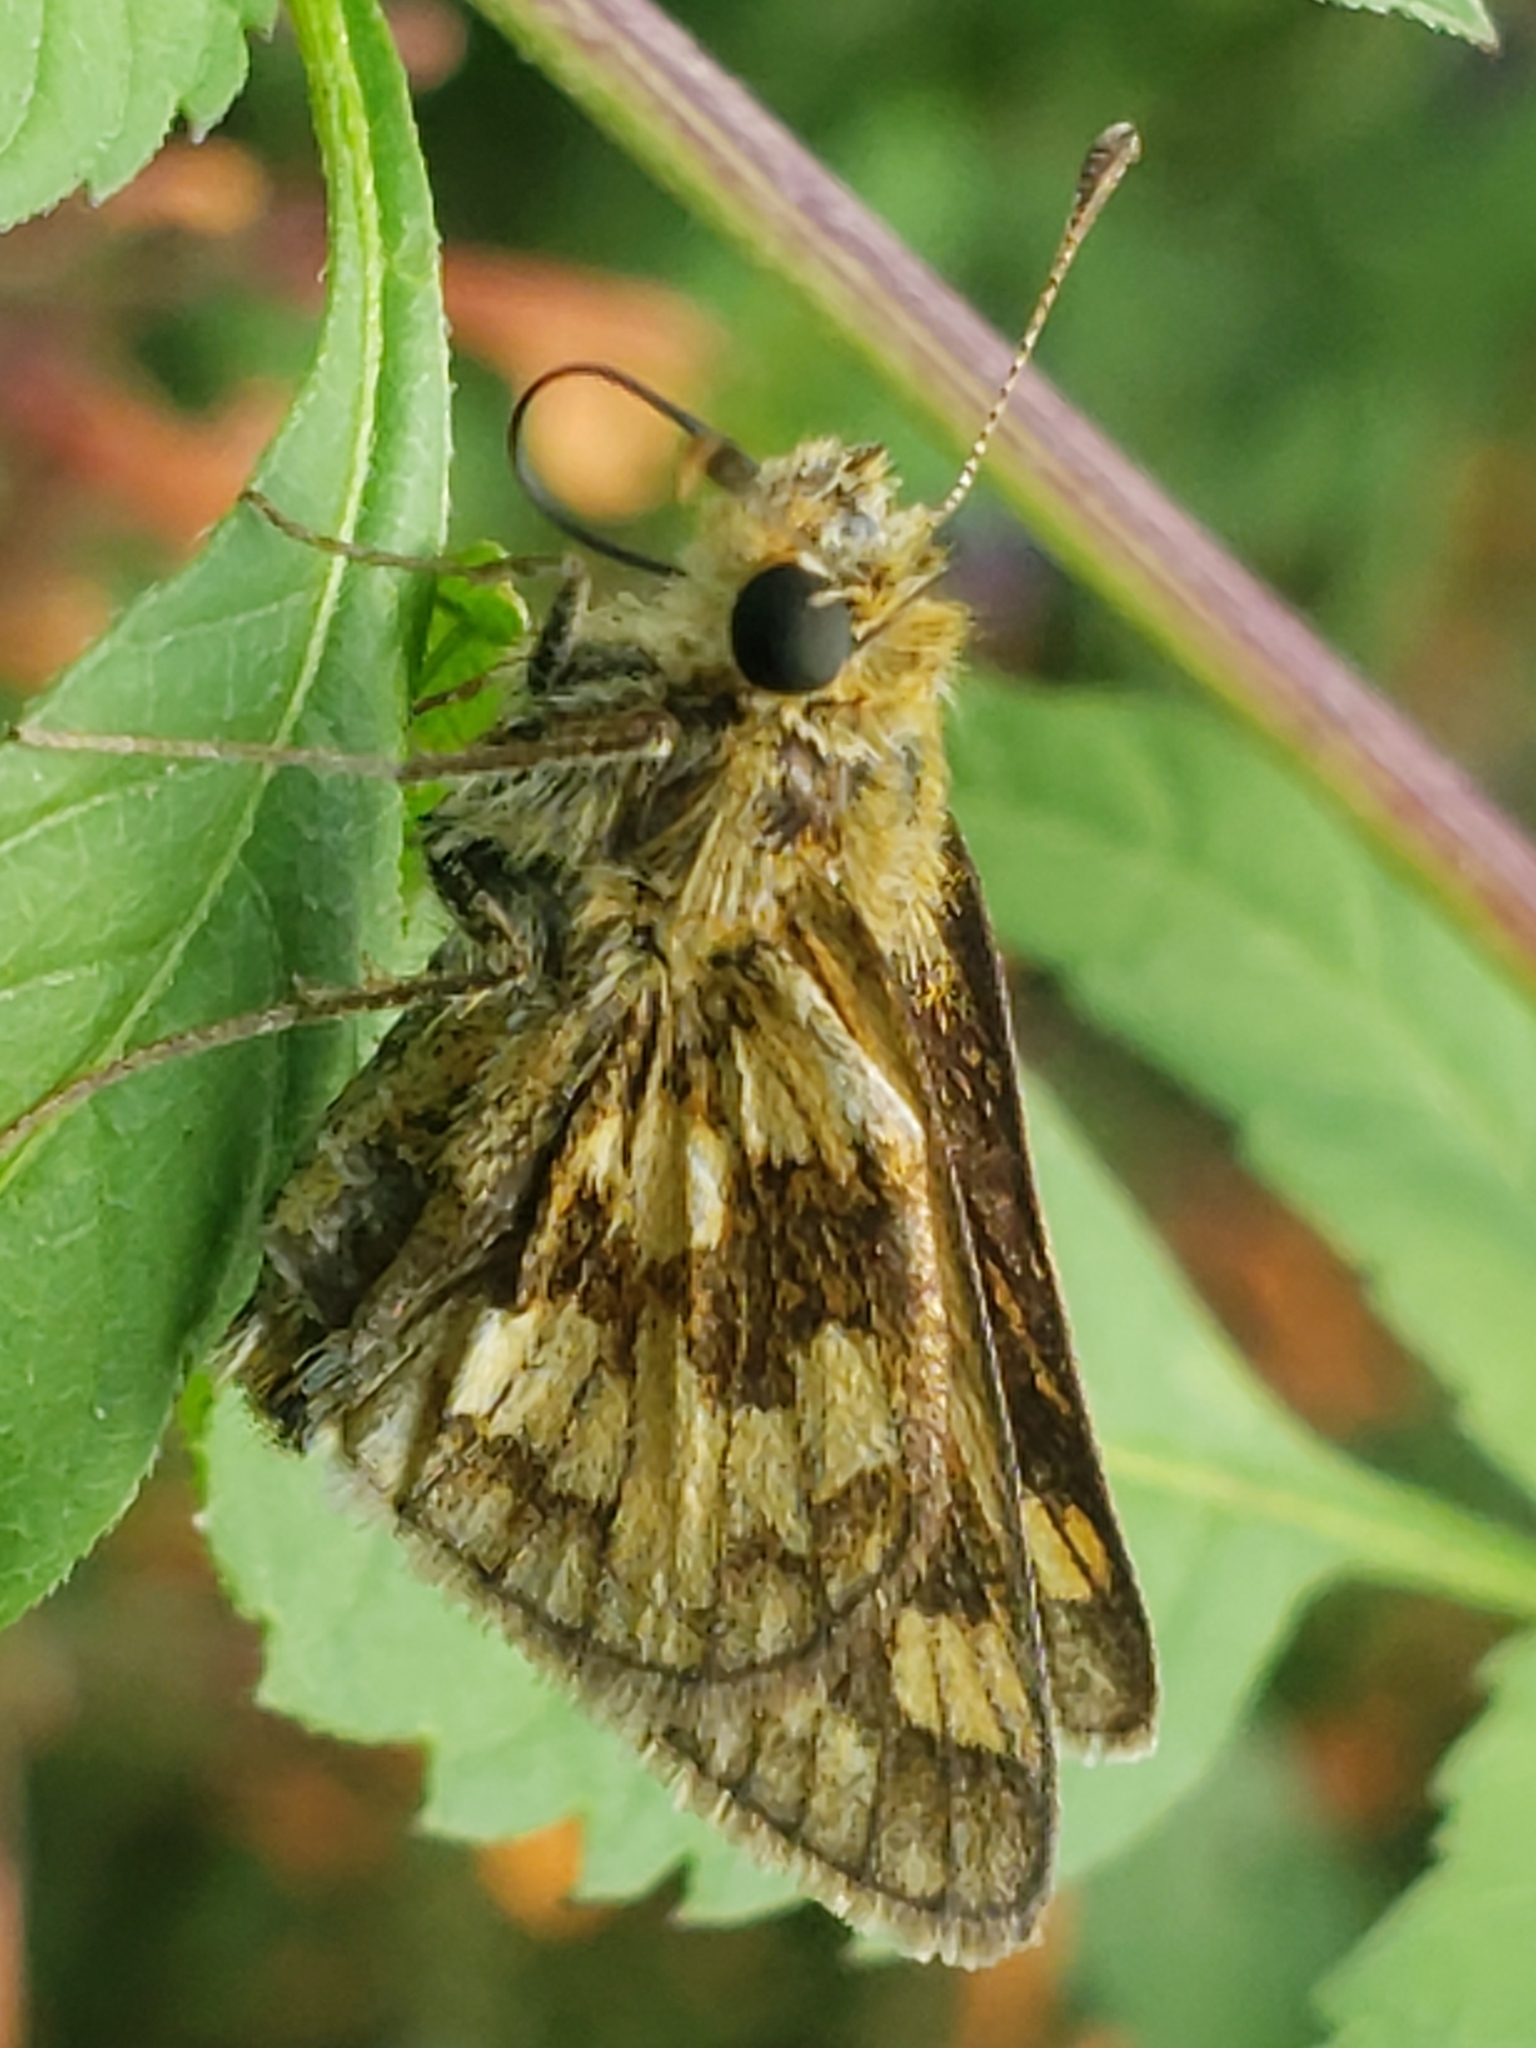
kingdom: Animalia
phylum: Arthropoda
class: Insecta
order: Lepidoptera
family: Hesperiidae
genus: Polites
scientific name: Polites coras
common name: Peck's skipper
